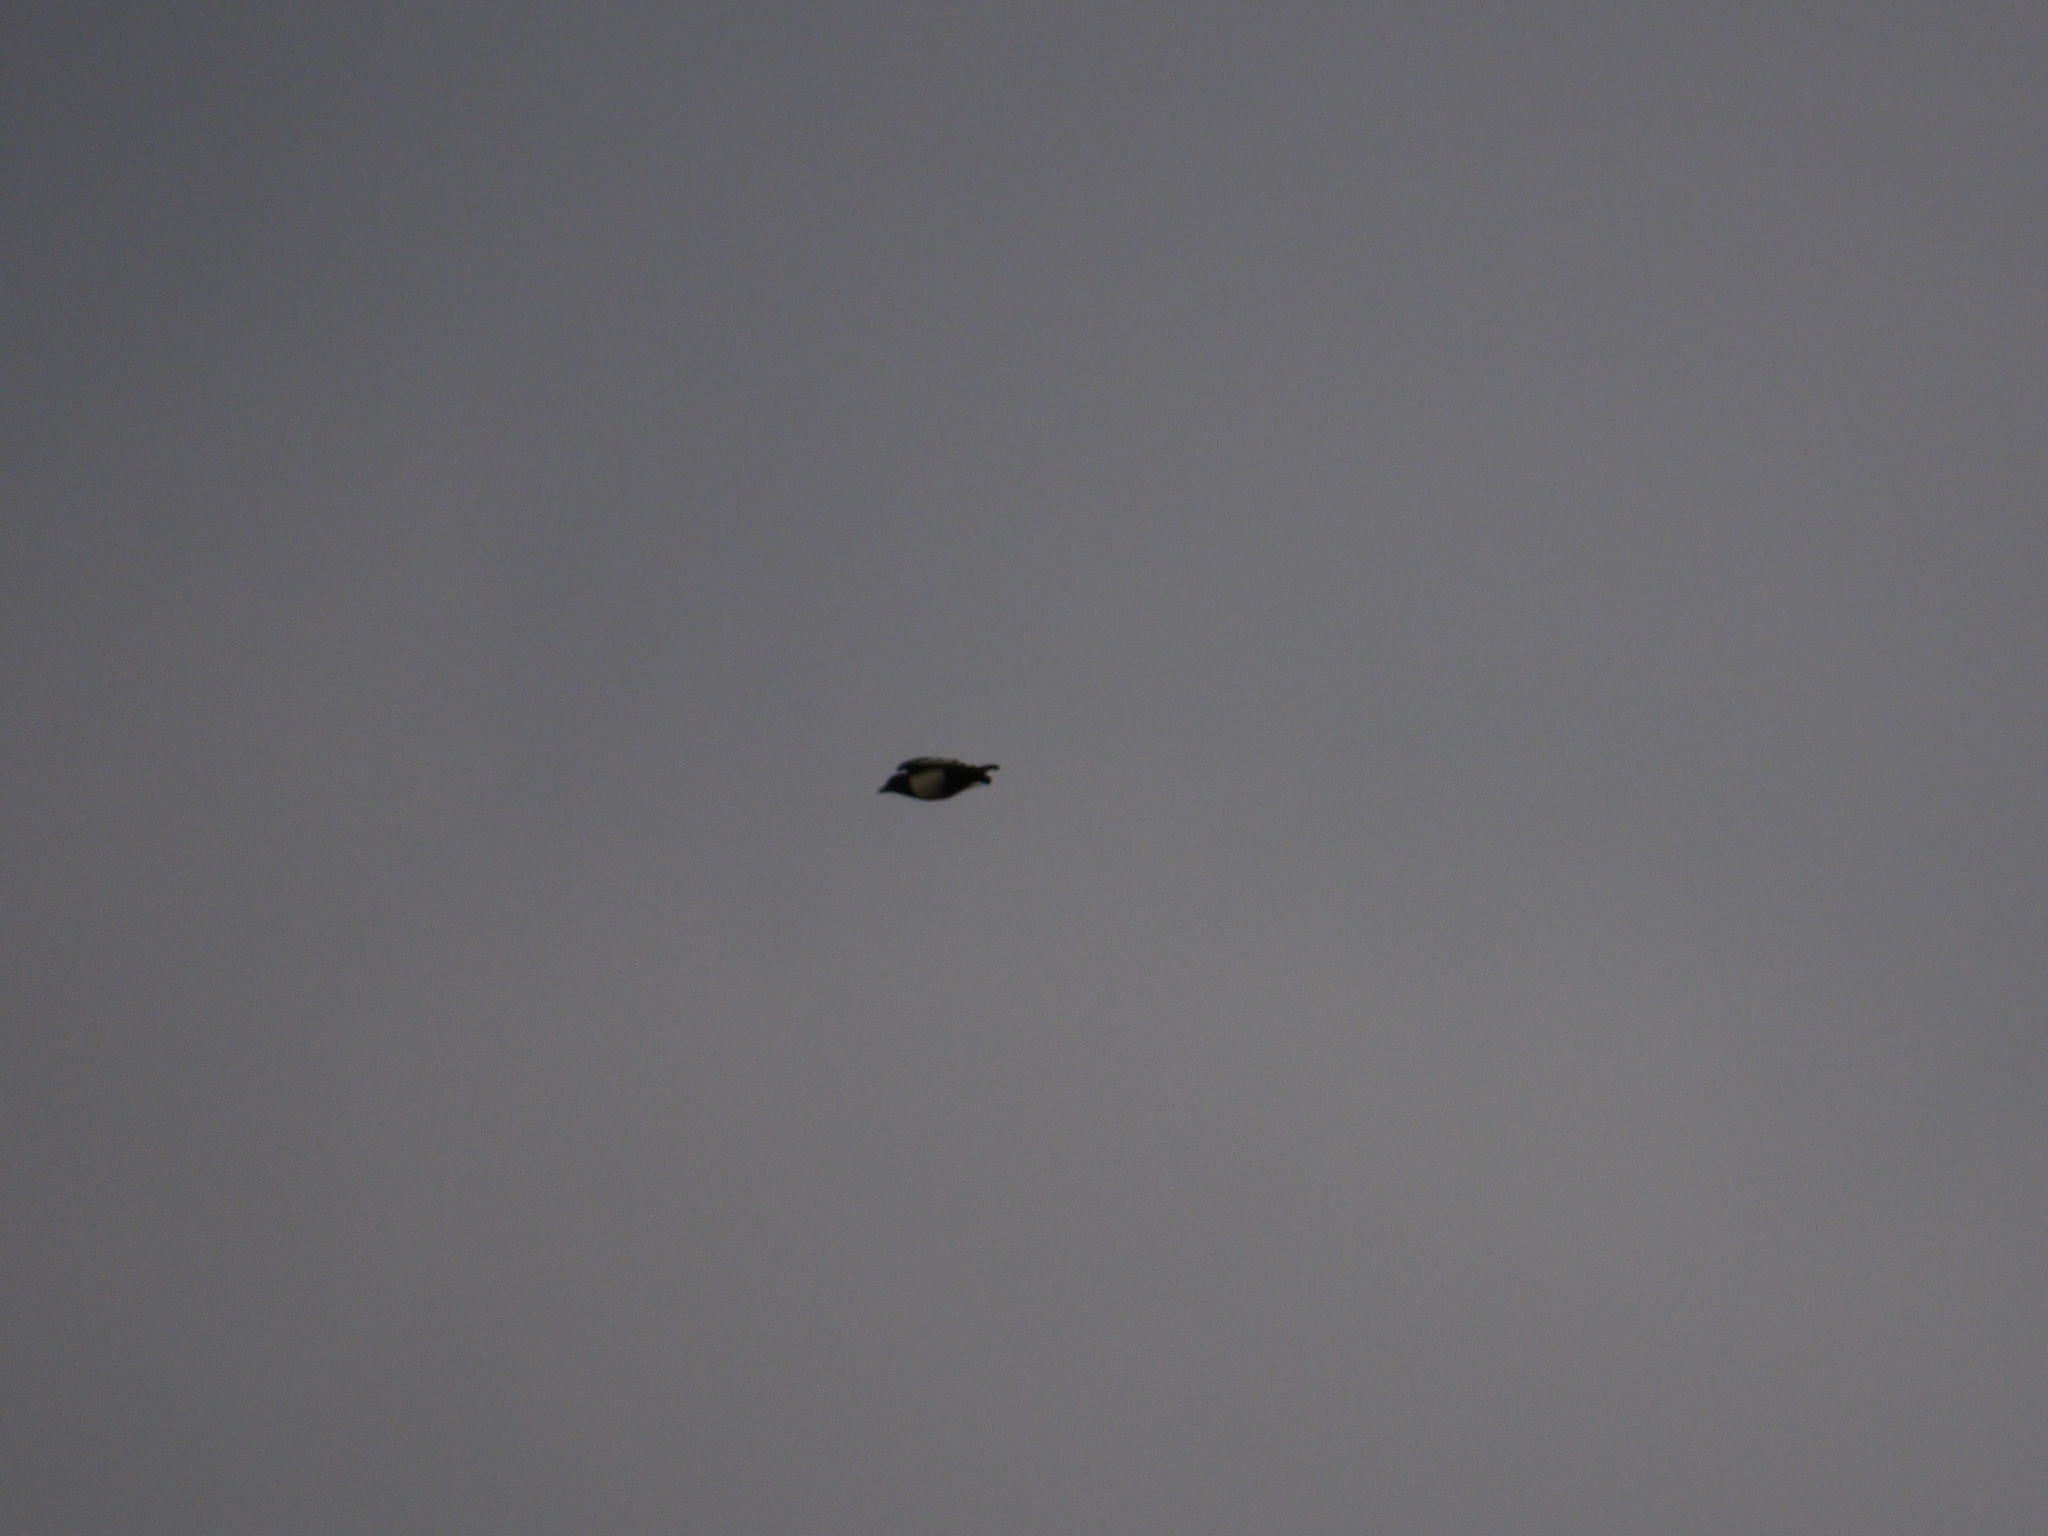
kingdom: Animalia
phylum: Chordata
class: Aves
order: Passeriformes
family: Corvidae
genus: Pica
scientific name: Pica pica
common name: Eurasian magpie
